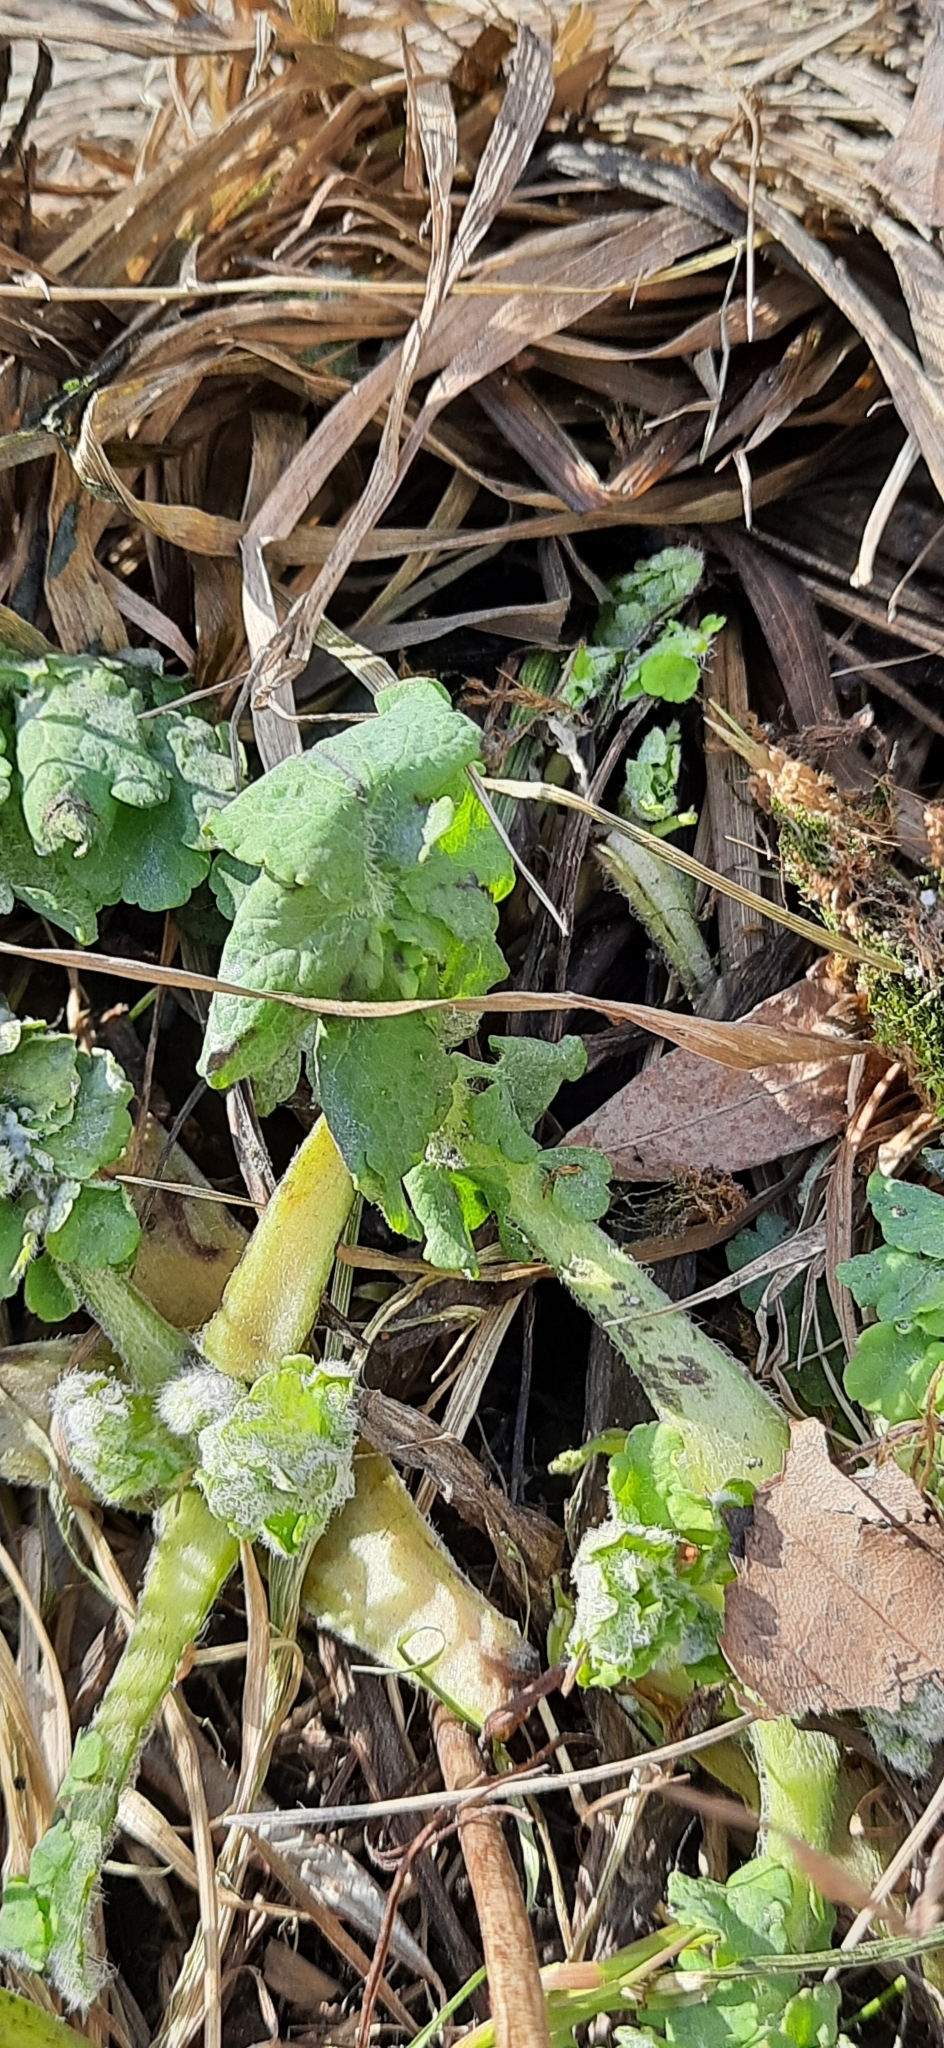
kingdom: Plantae
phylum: Tracheophyta
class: Magnoliopsida
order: Ranunculales
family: Papaveraceae
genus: Chelidonium
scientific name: Chelidonium majus
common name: Greater celandine
